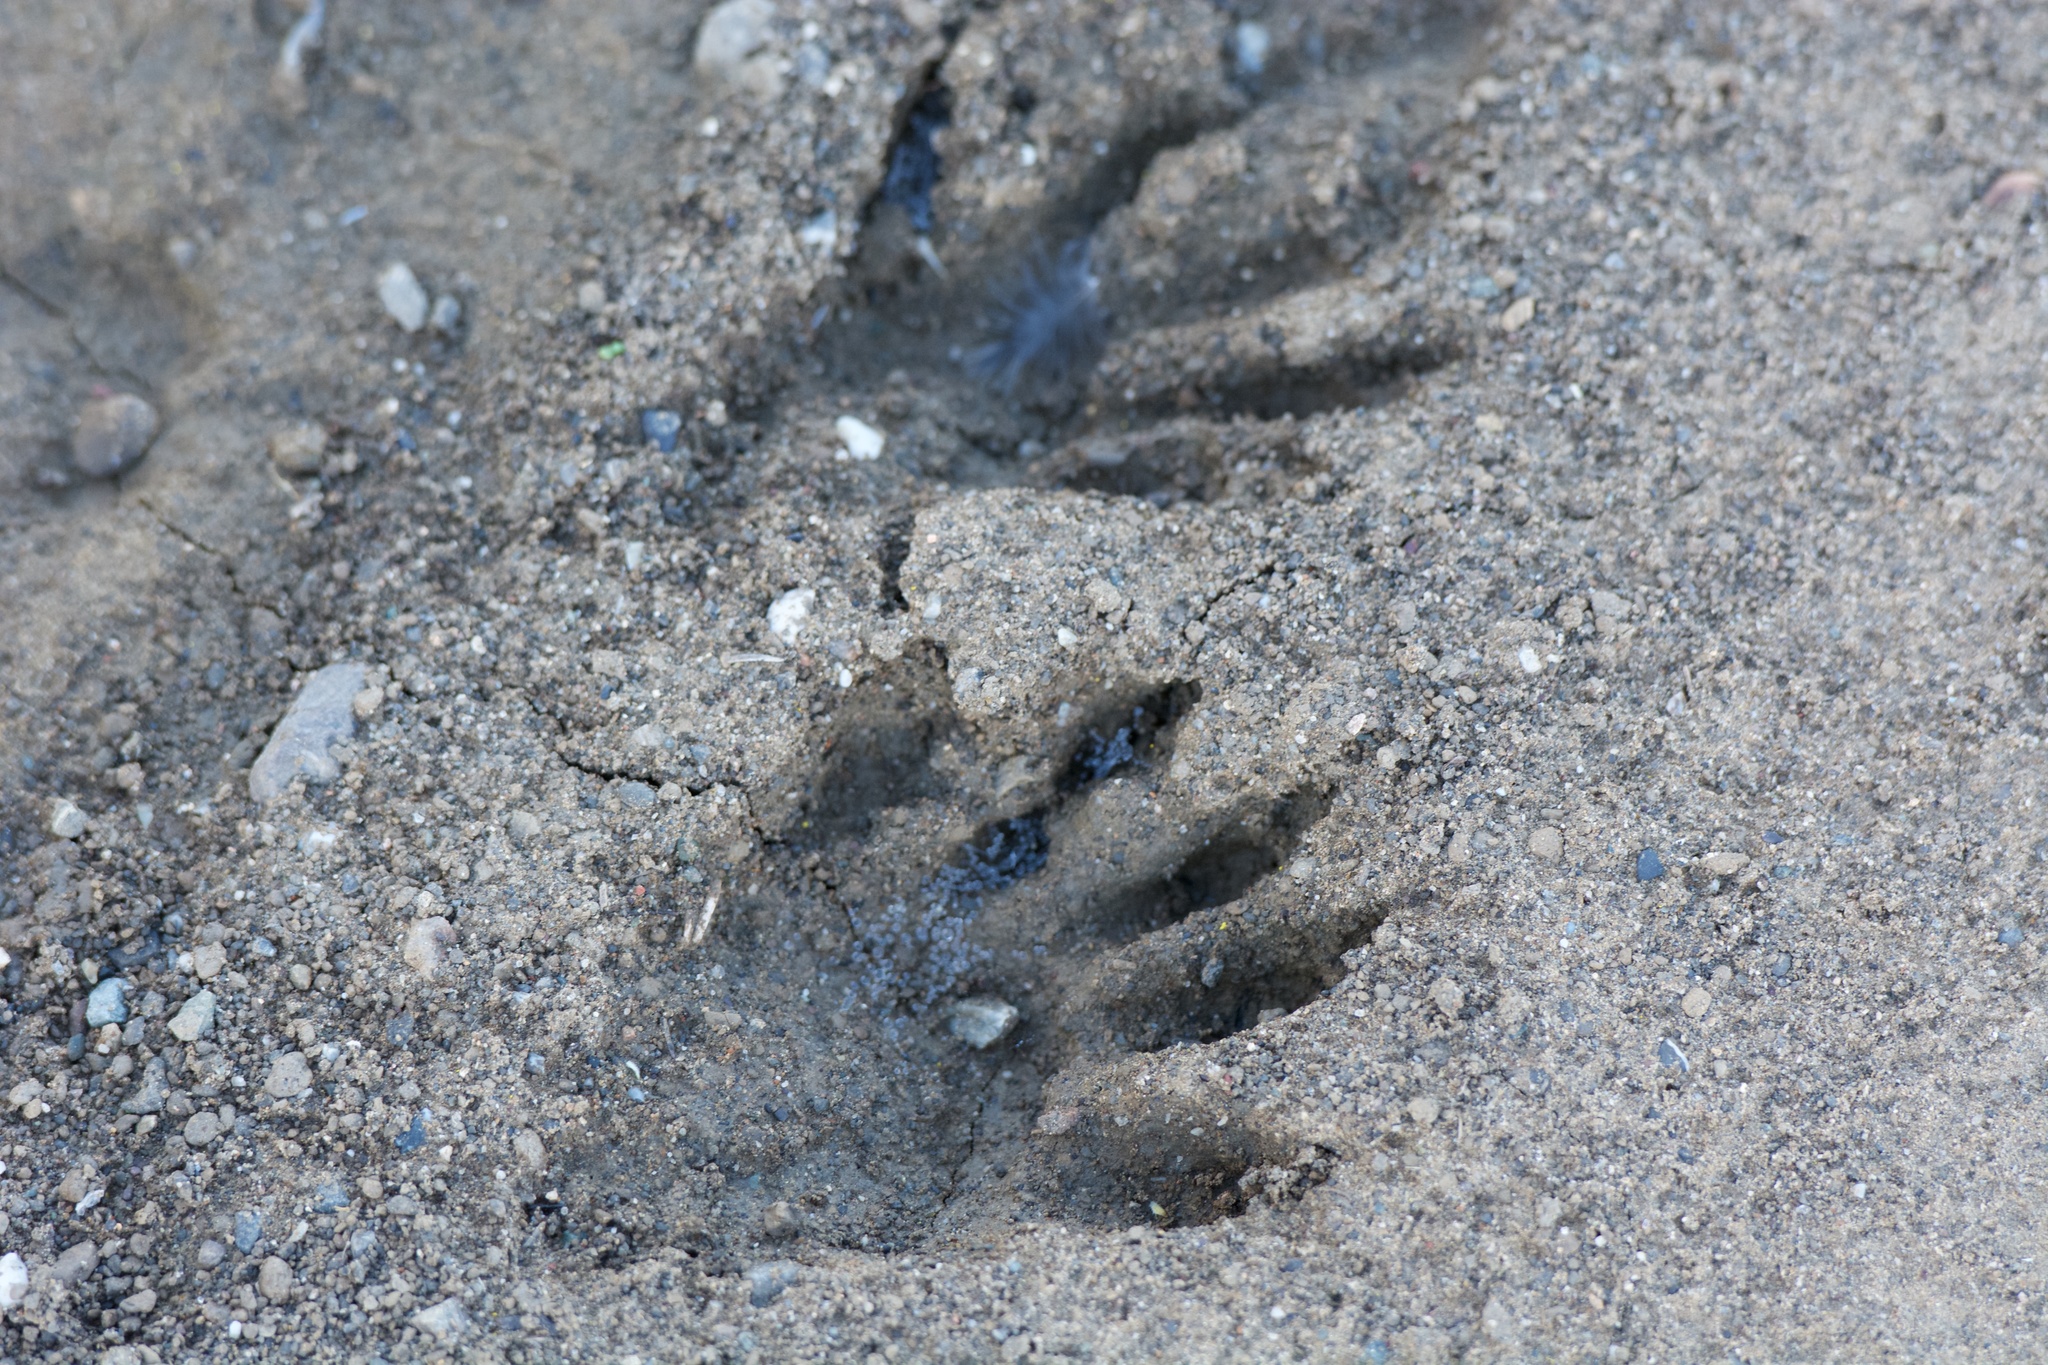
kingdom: Animalia
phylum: Chordata
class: Mammalia
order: Carnivora
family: Procyonidae
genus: Procyon
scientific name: Procyon lotor
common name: Raccoon
